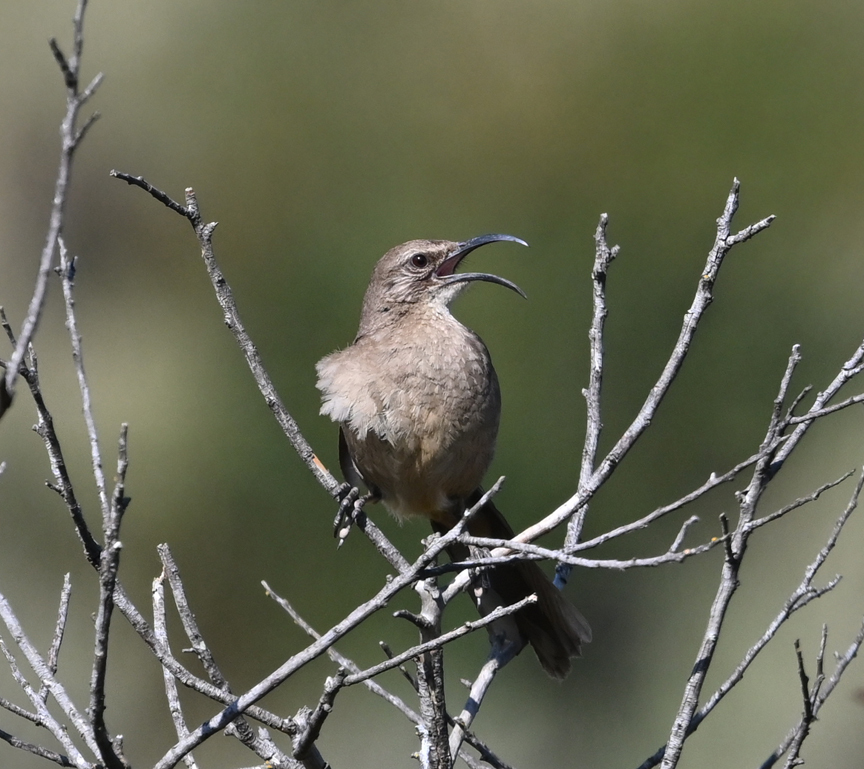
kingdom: Animalia
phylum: Chordata
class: Aves
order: Passeriformes
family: Mimidae
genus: Toxostoma
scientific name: Toxostoma redivivum
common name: California thrasher
